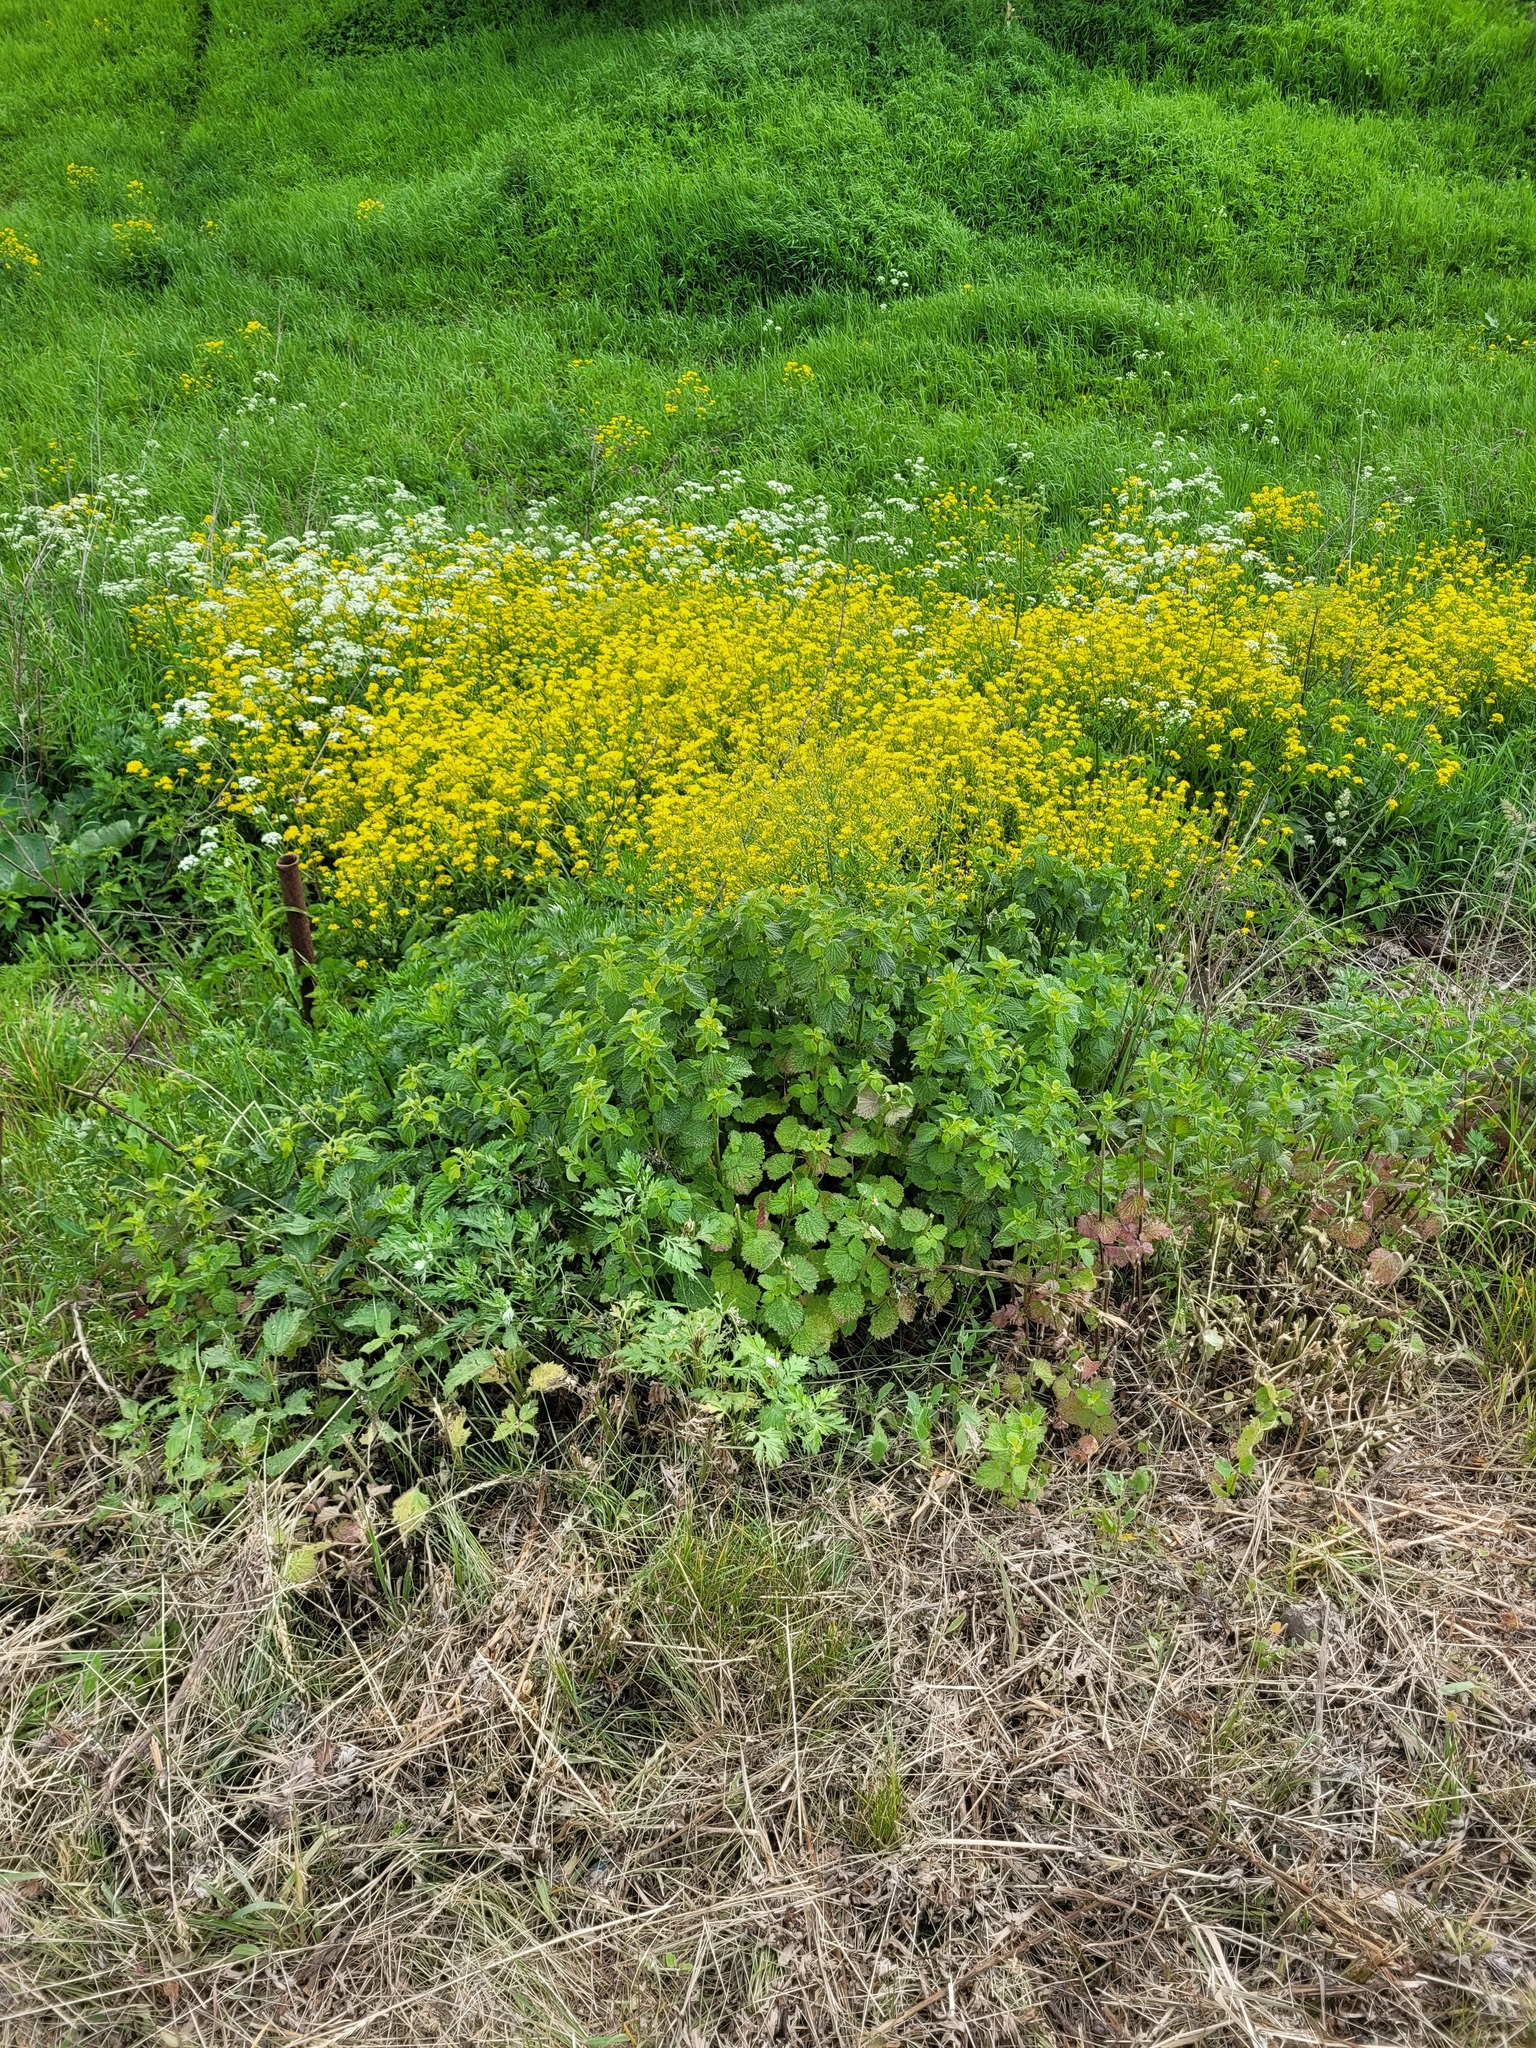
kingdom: Plantae
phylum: Tracheophyta
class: Magnoliopsida
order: Lamiales
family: Lamiaceae
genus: Ballota
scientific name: Ballota nigra
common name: Black horehound
